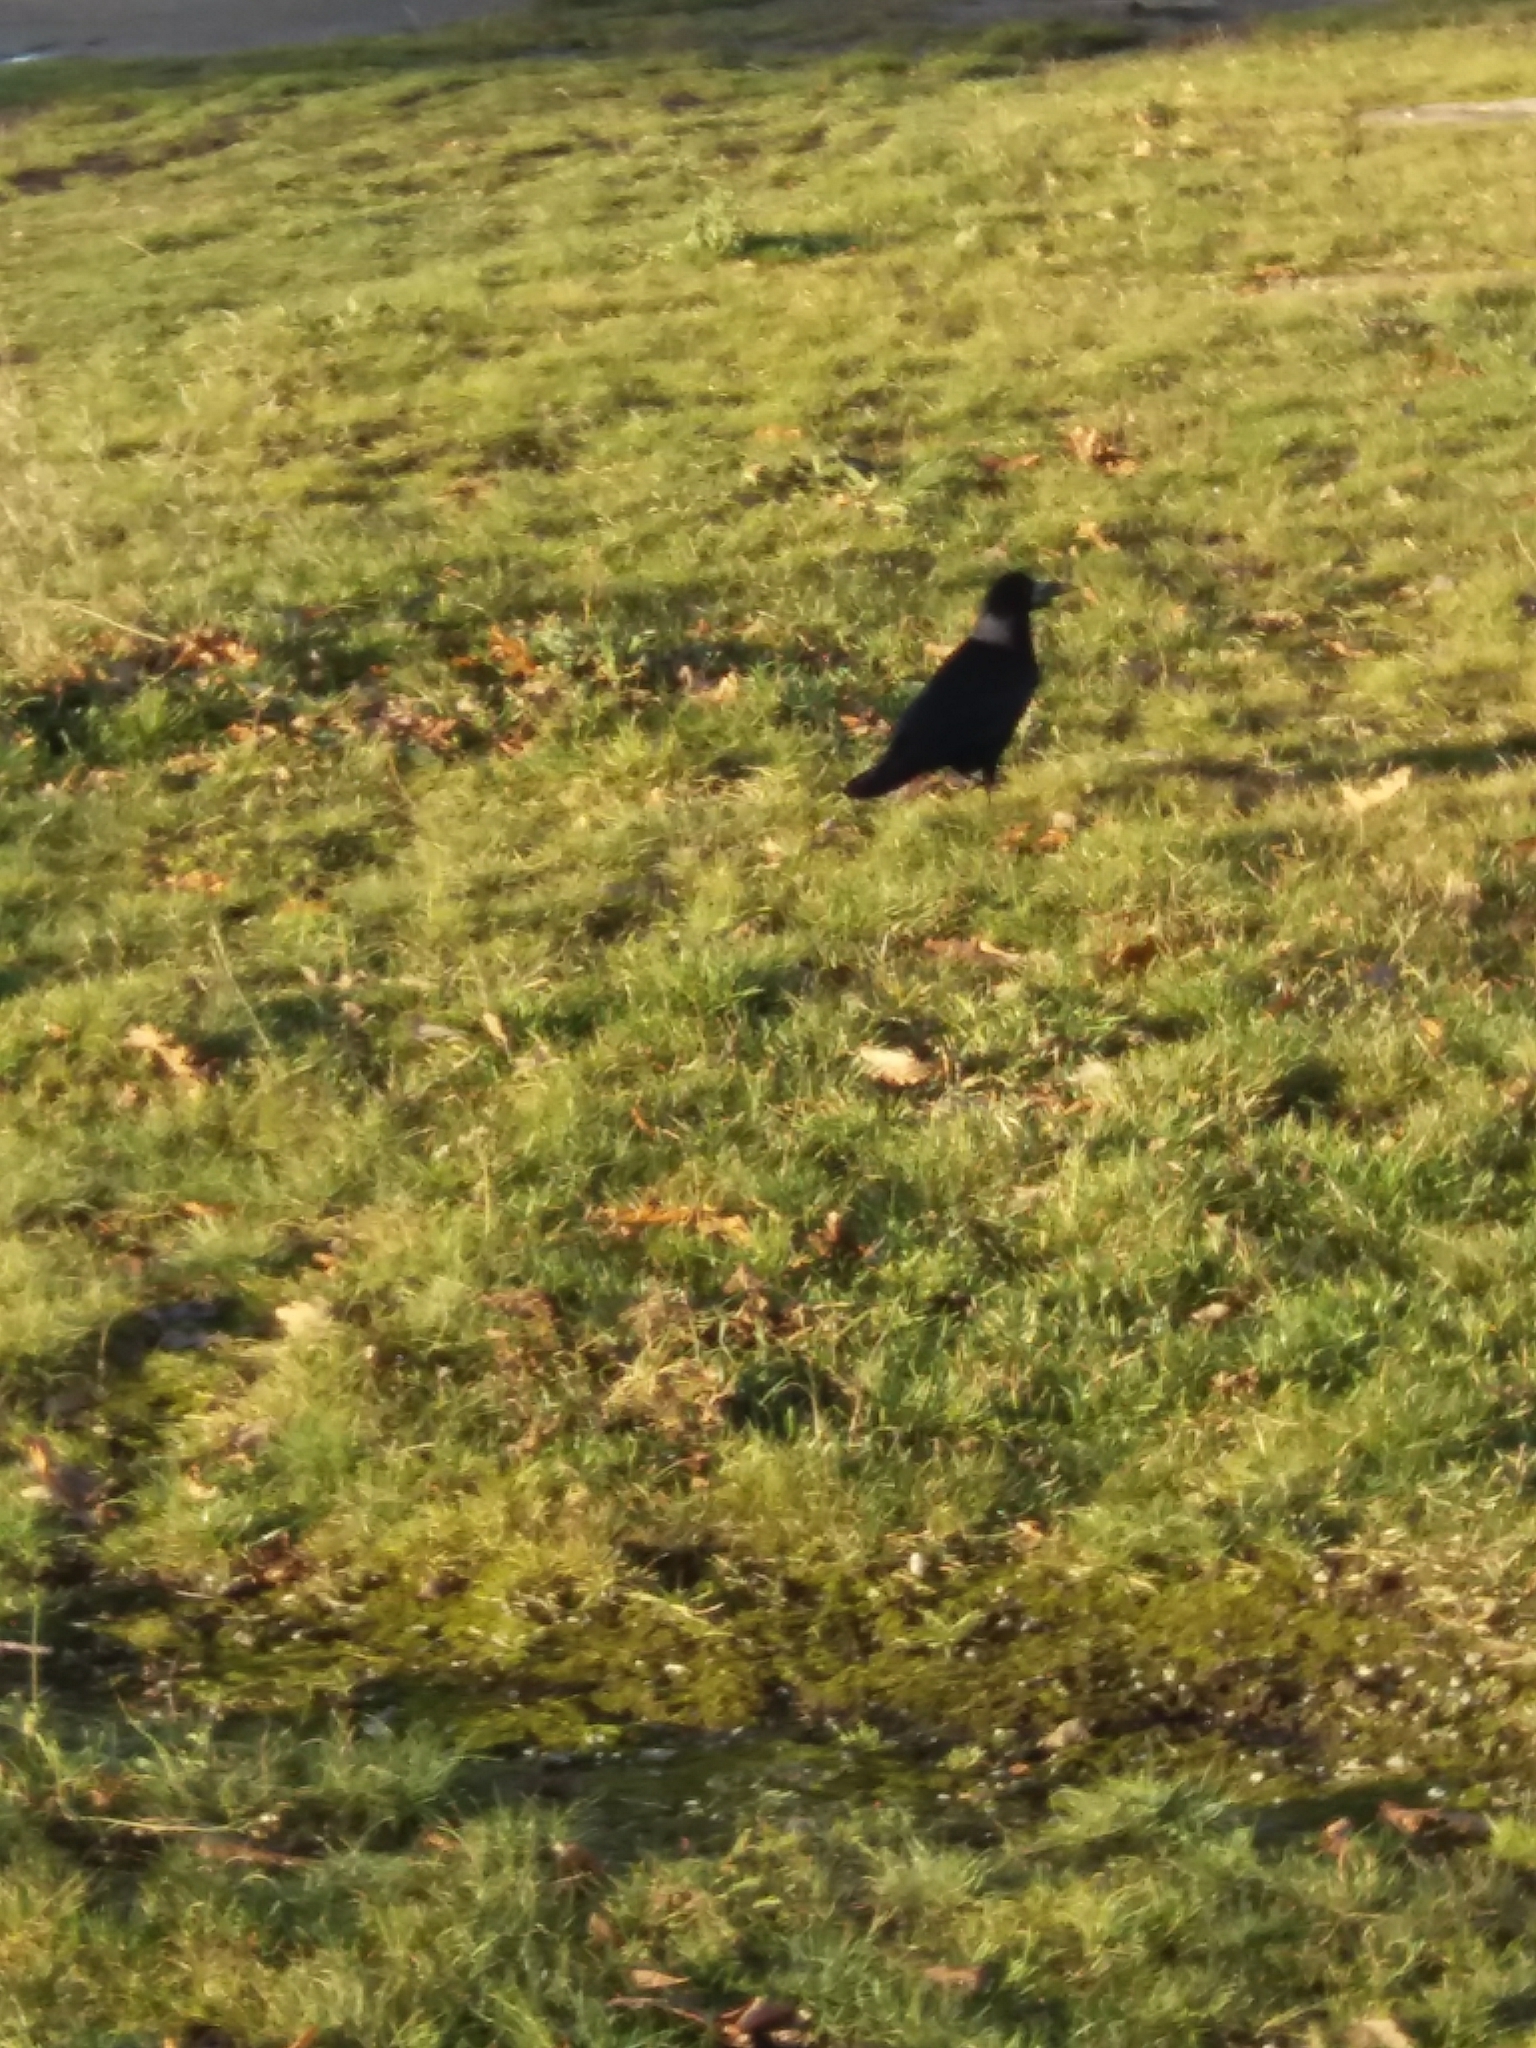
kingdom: Animalia
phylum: Chordata
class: Aves
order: Passeriformes
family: Corvidae
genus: Corvus
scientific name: Corvus frugilegus
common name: Rook
